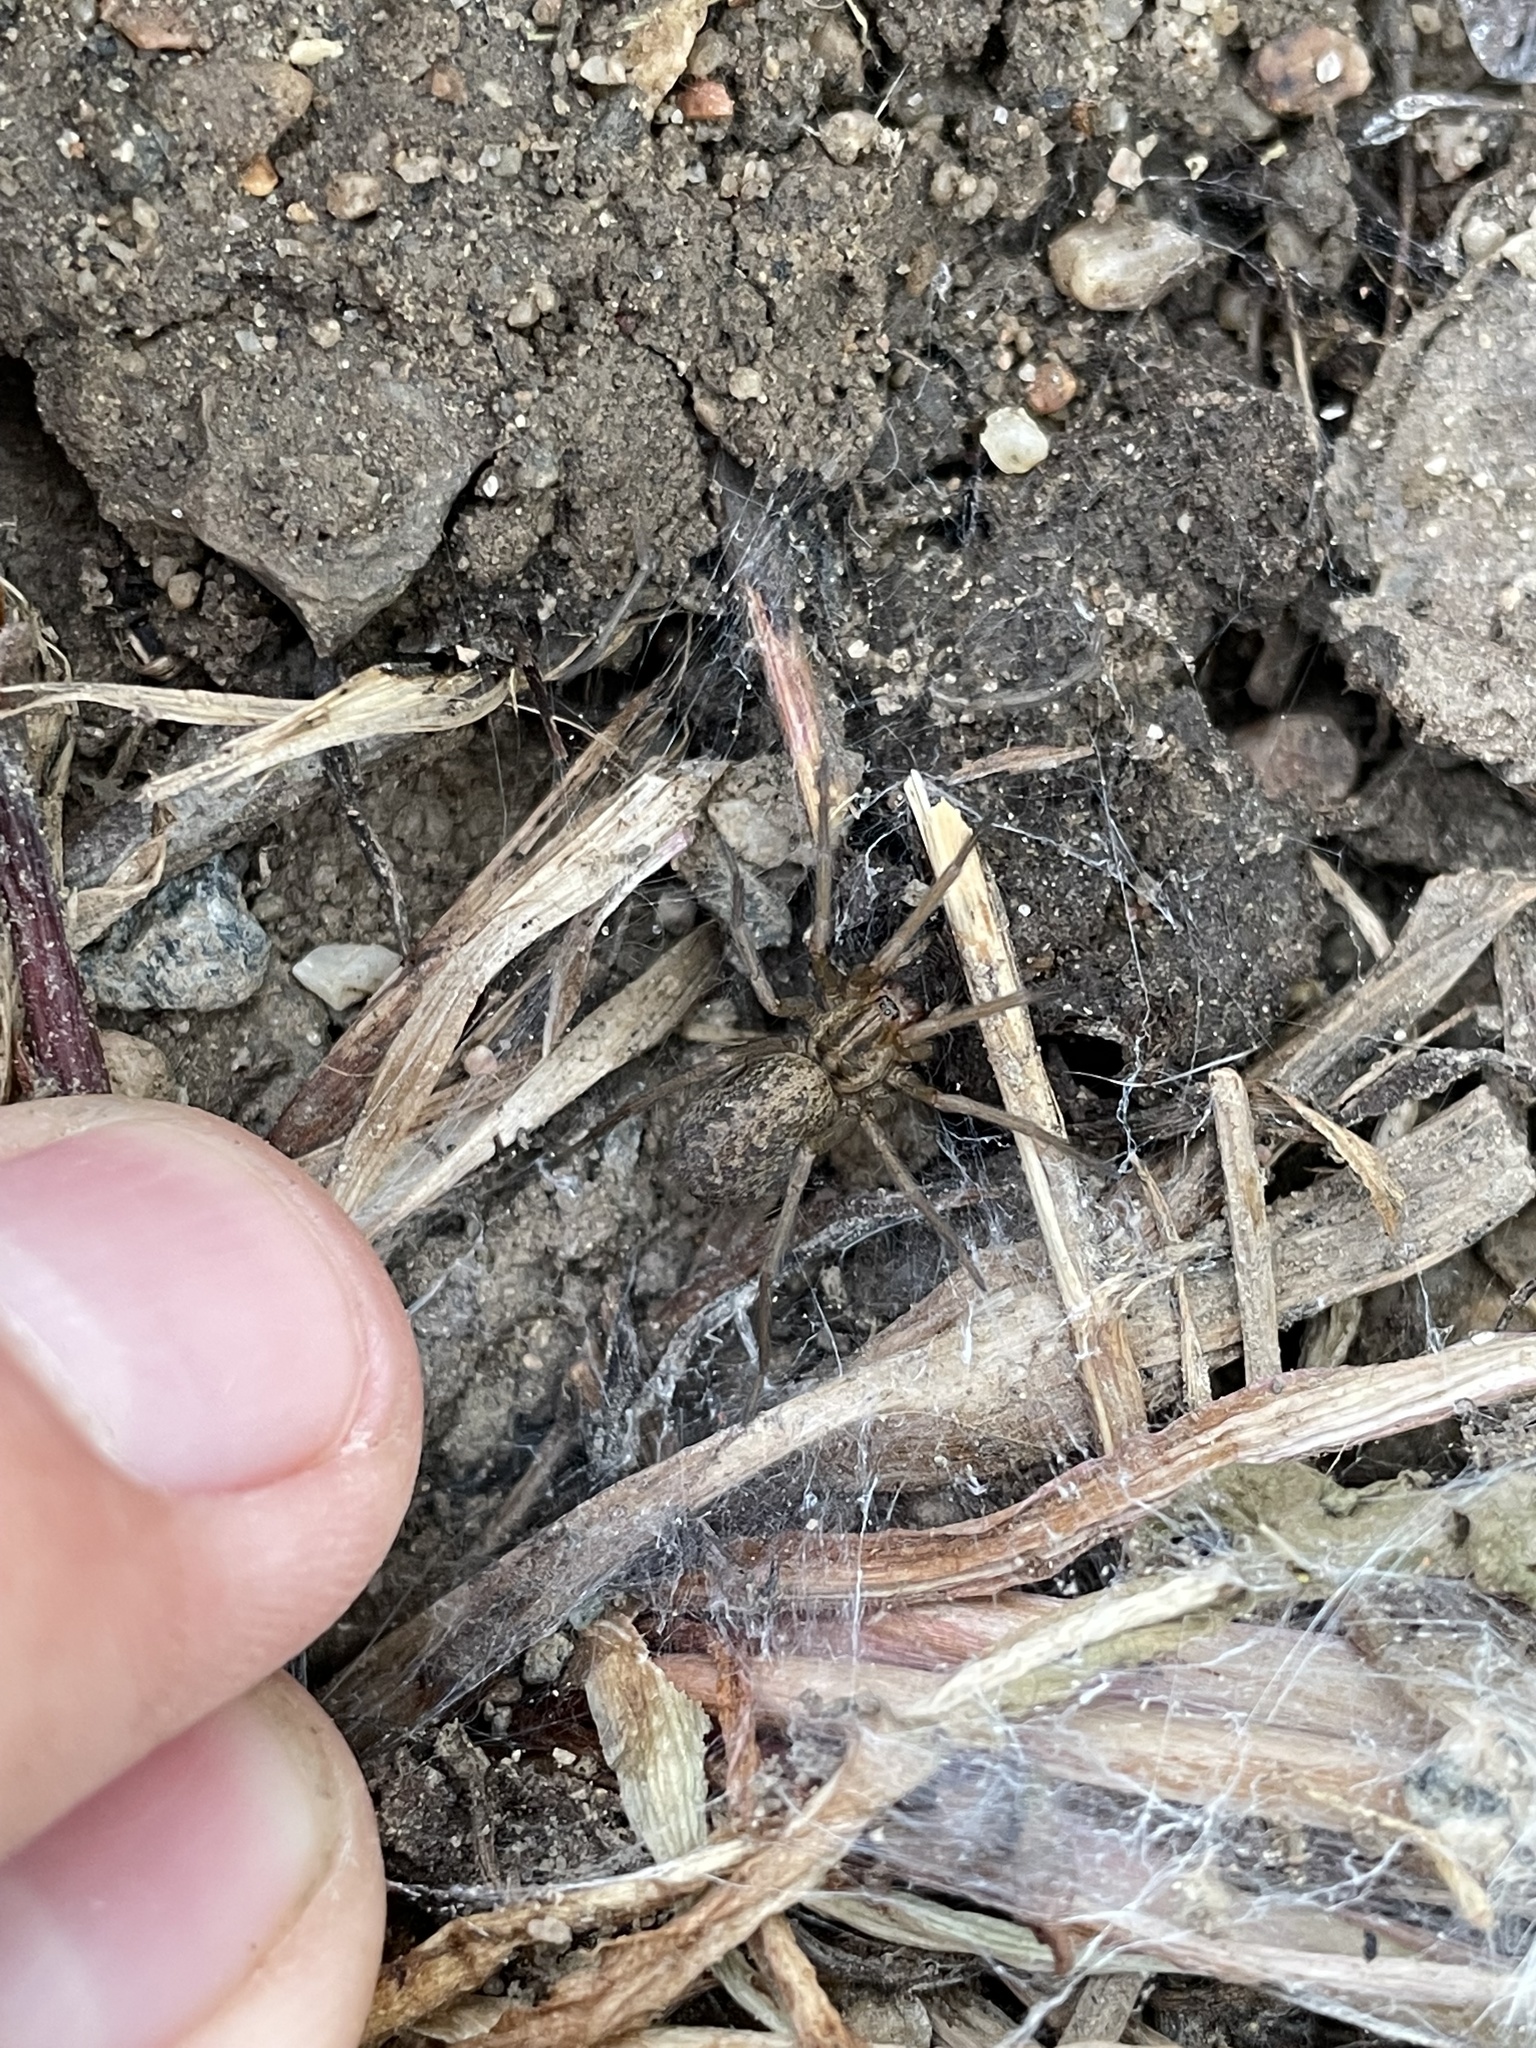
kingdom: Animalia
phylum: Arthropoda
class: Arachnida
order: Araneae
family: Agelenidae
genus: Eratigena
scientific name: Eratigena agrestis
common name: Hobo spider
